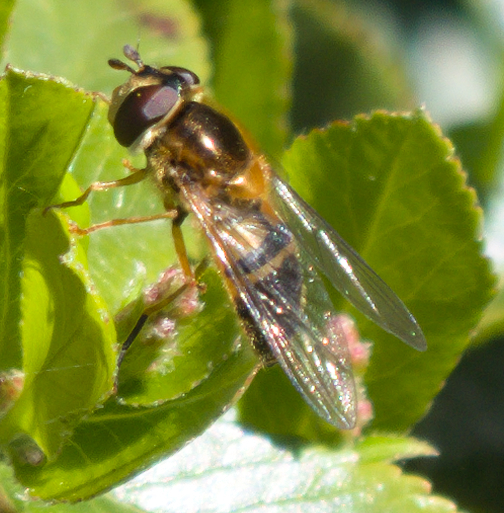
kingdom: Animalia
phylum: Arthropoda
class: Insecta
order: Diptera
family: Syrphidae
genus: Epistrophe
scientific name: Epistrophe eligans
